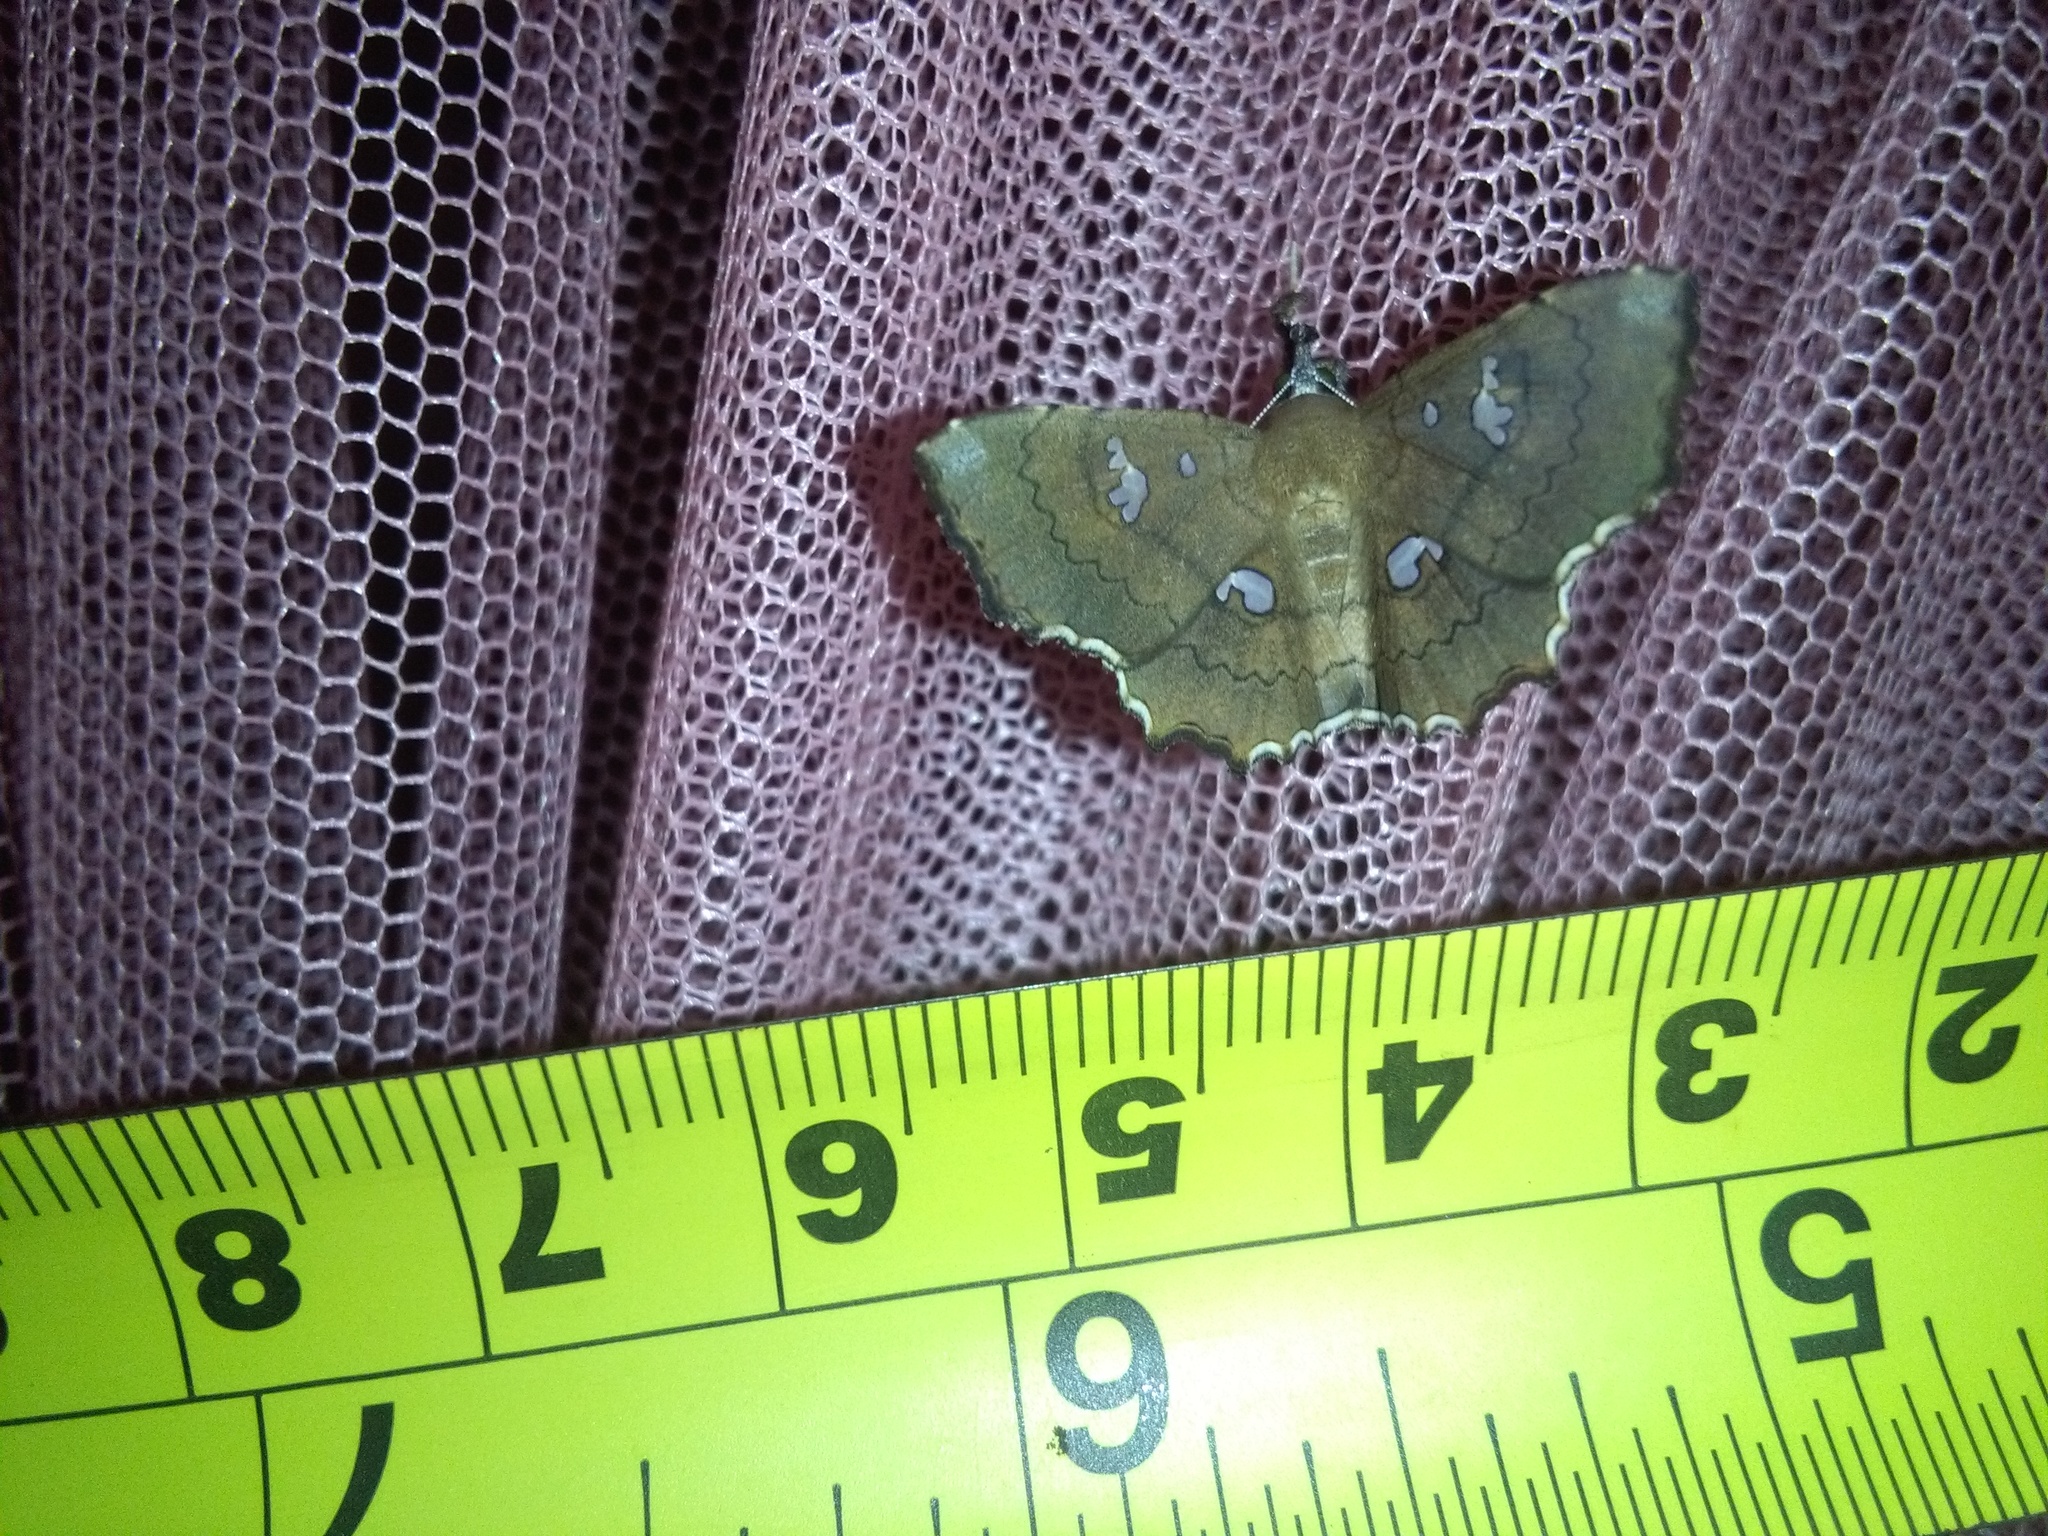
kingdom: Animalia
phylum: Arthropoda
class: Insecta
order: Lepidoptera
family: Erebidae
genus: Egnasia
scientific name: Egnasia ephyrodalis
